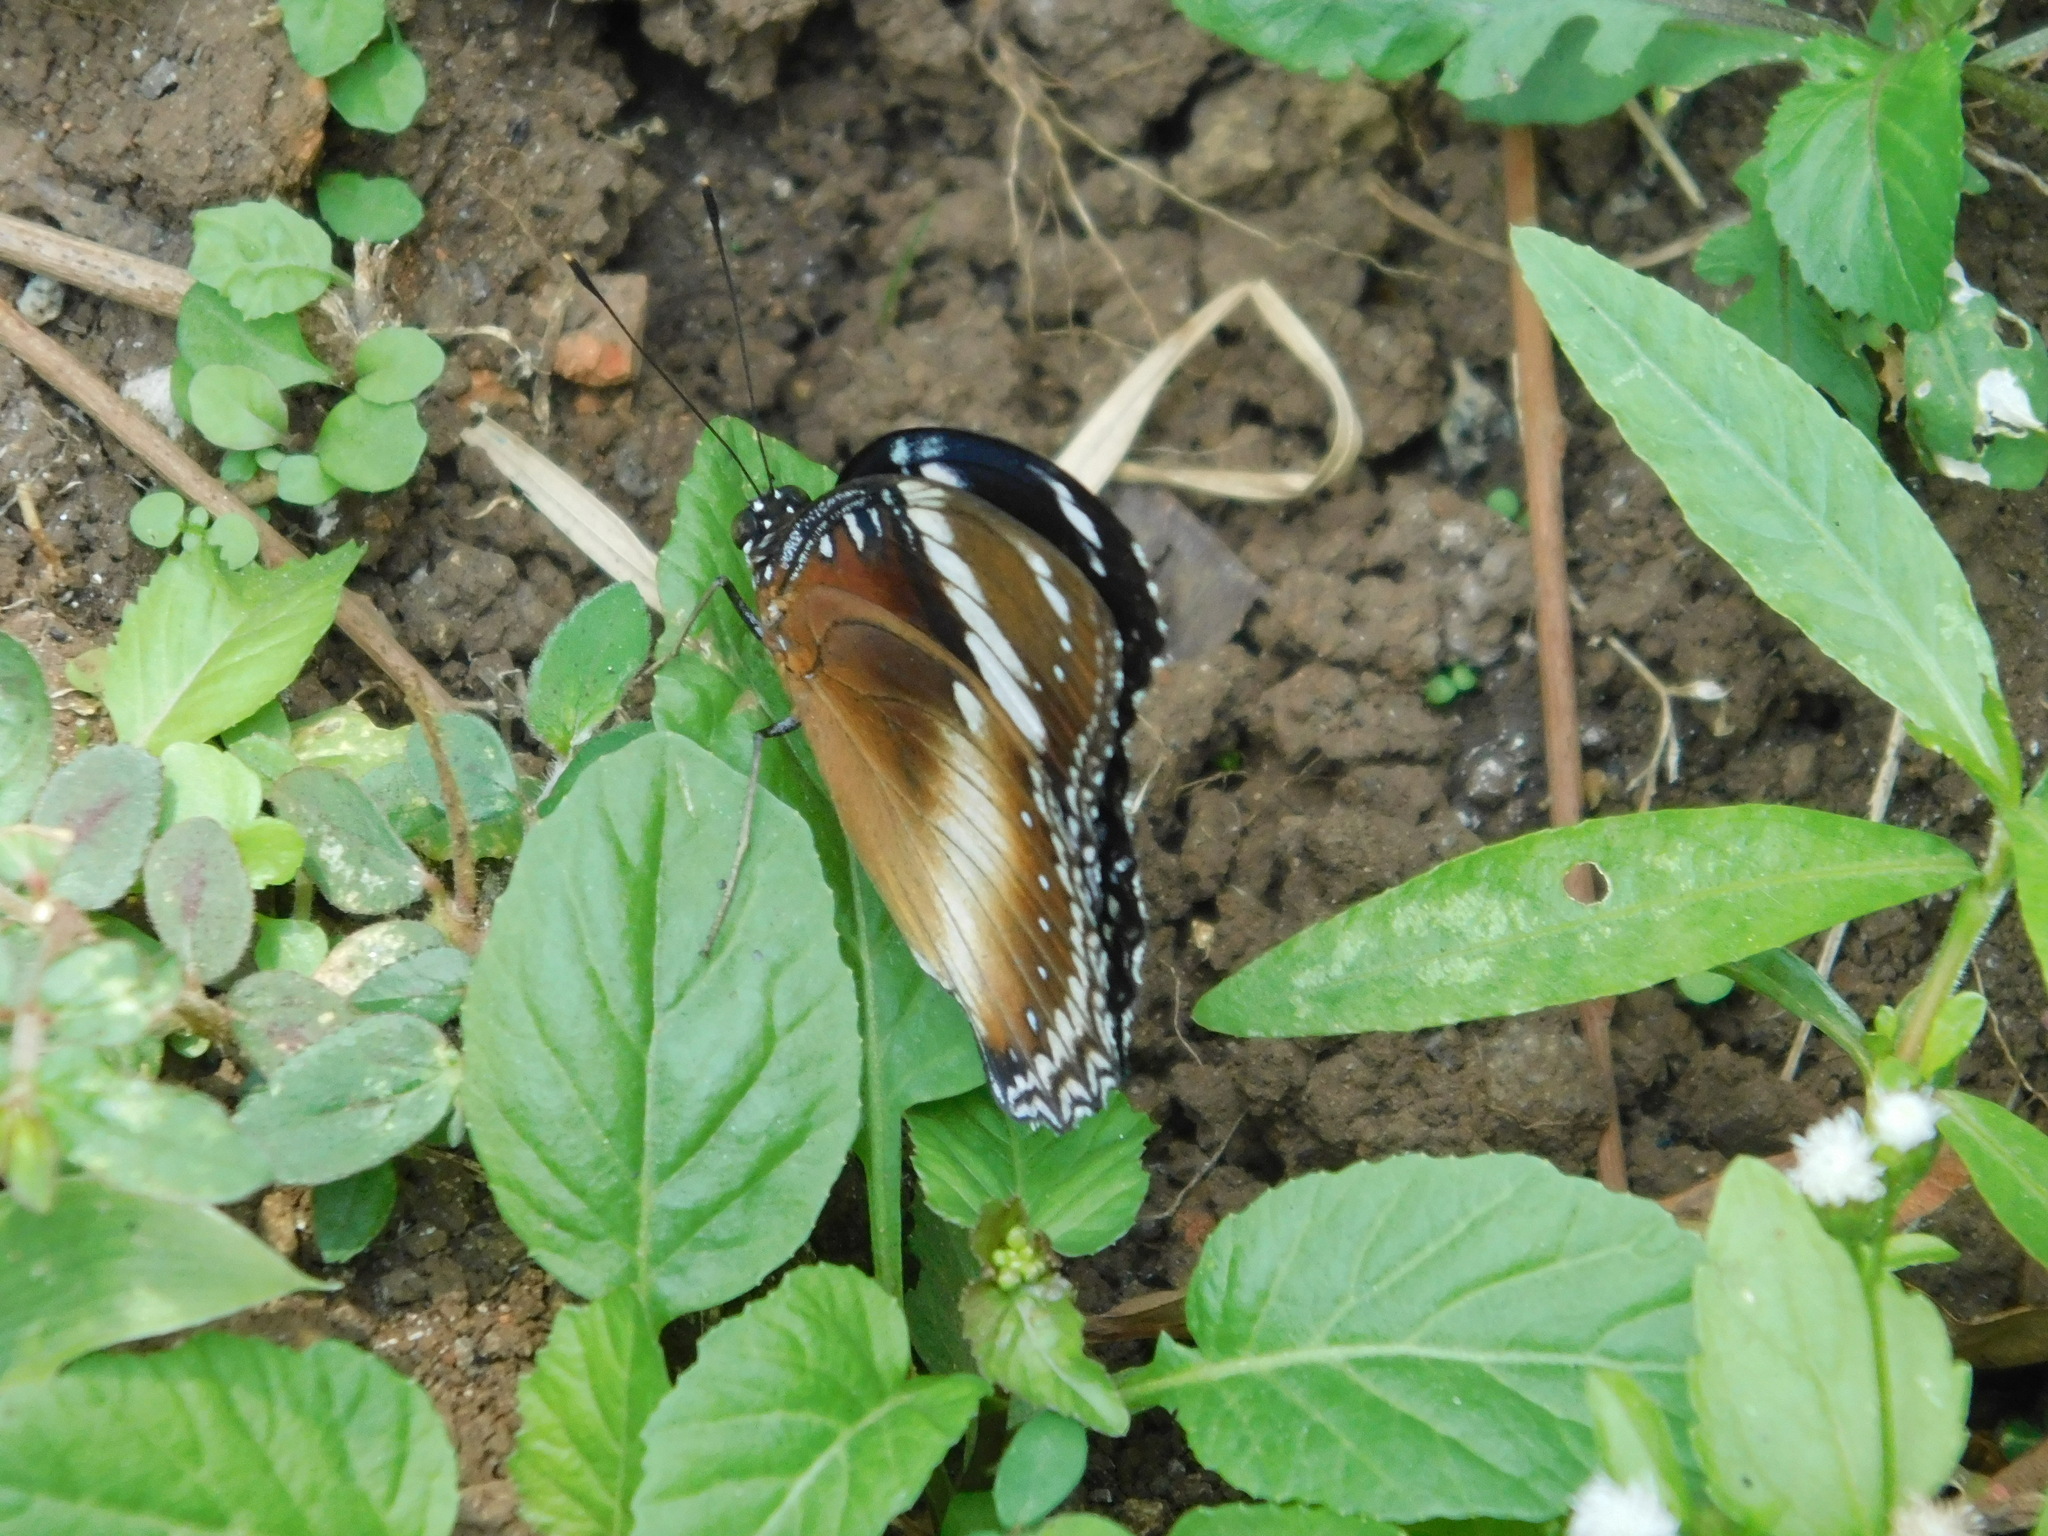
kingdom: Animalia
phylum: Arthropoda
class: Insecta
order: Lepidoptera
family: Nymphalidae
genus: Hypolimnas
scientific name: Hypolimnas bolina
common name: Great eggfly
